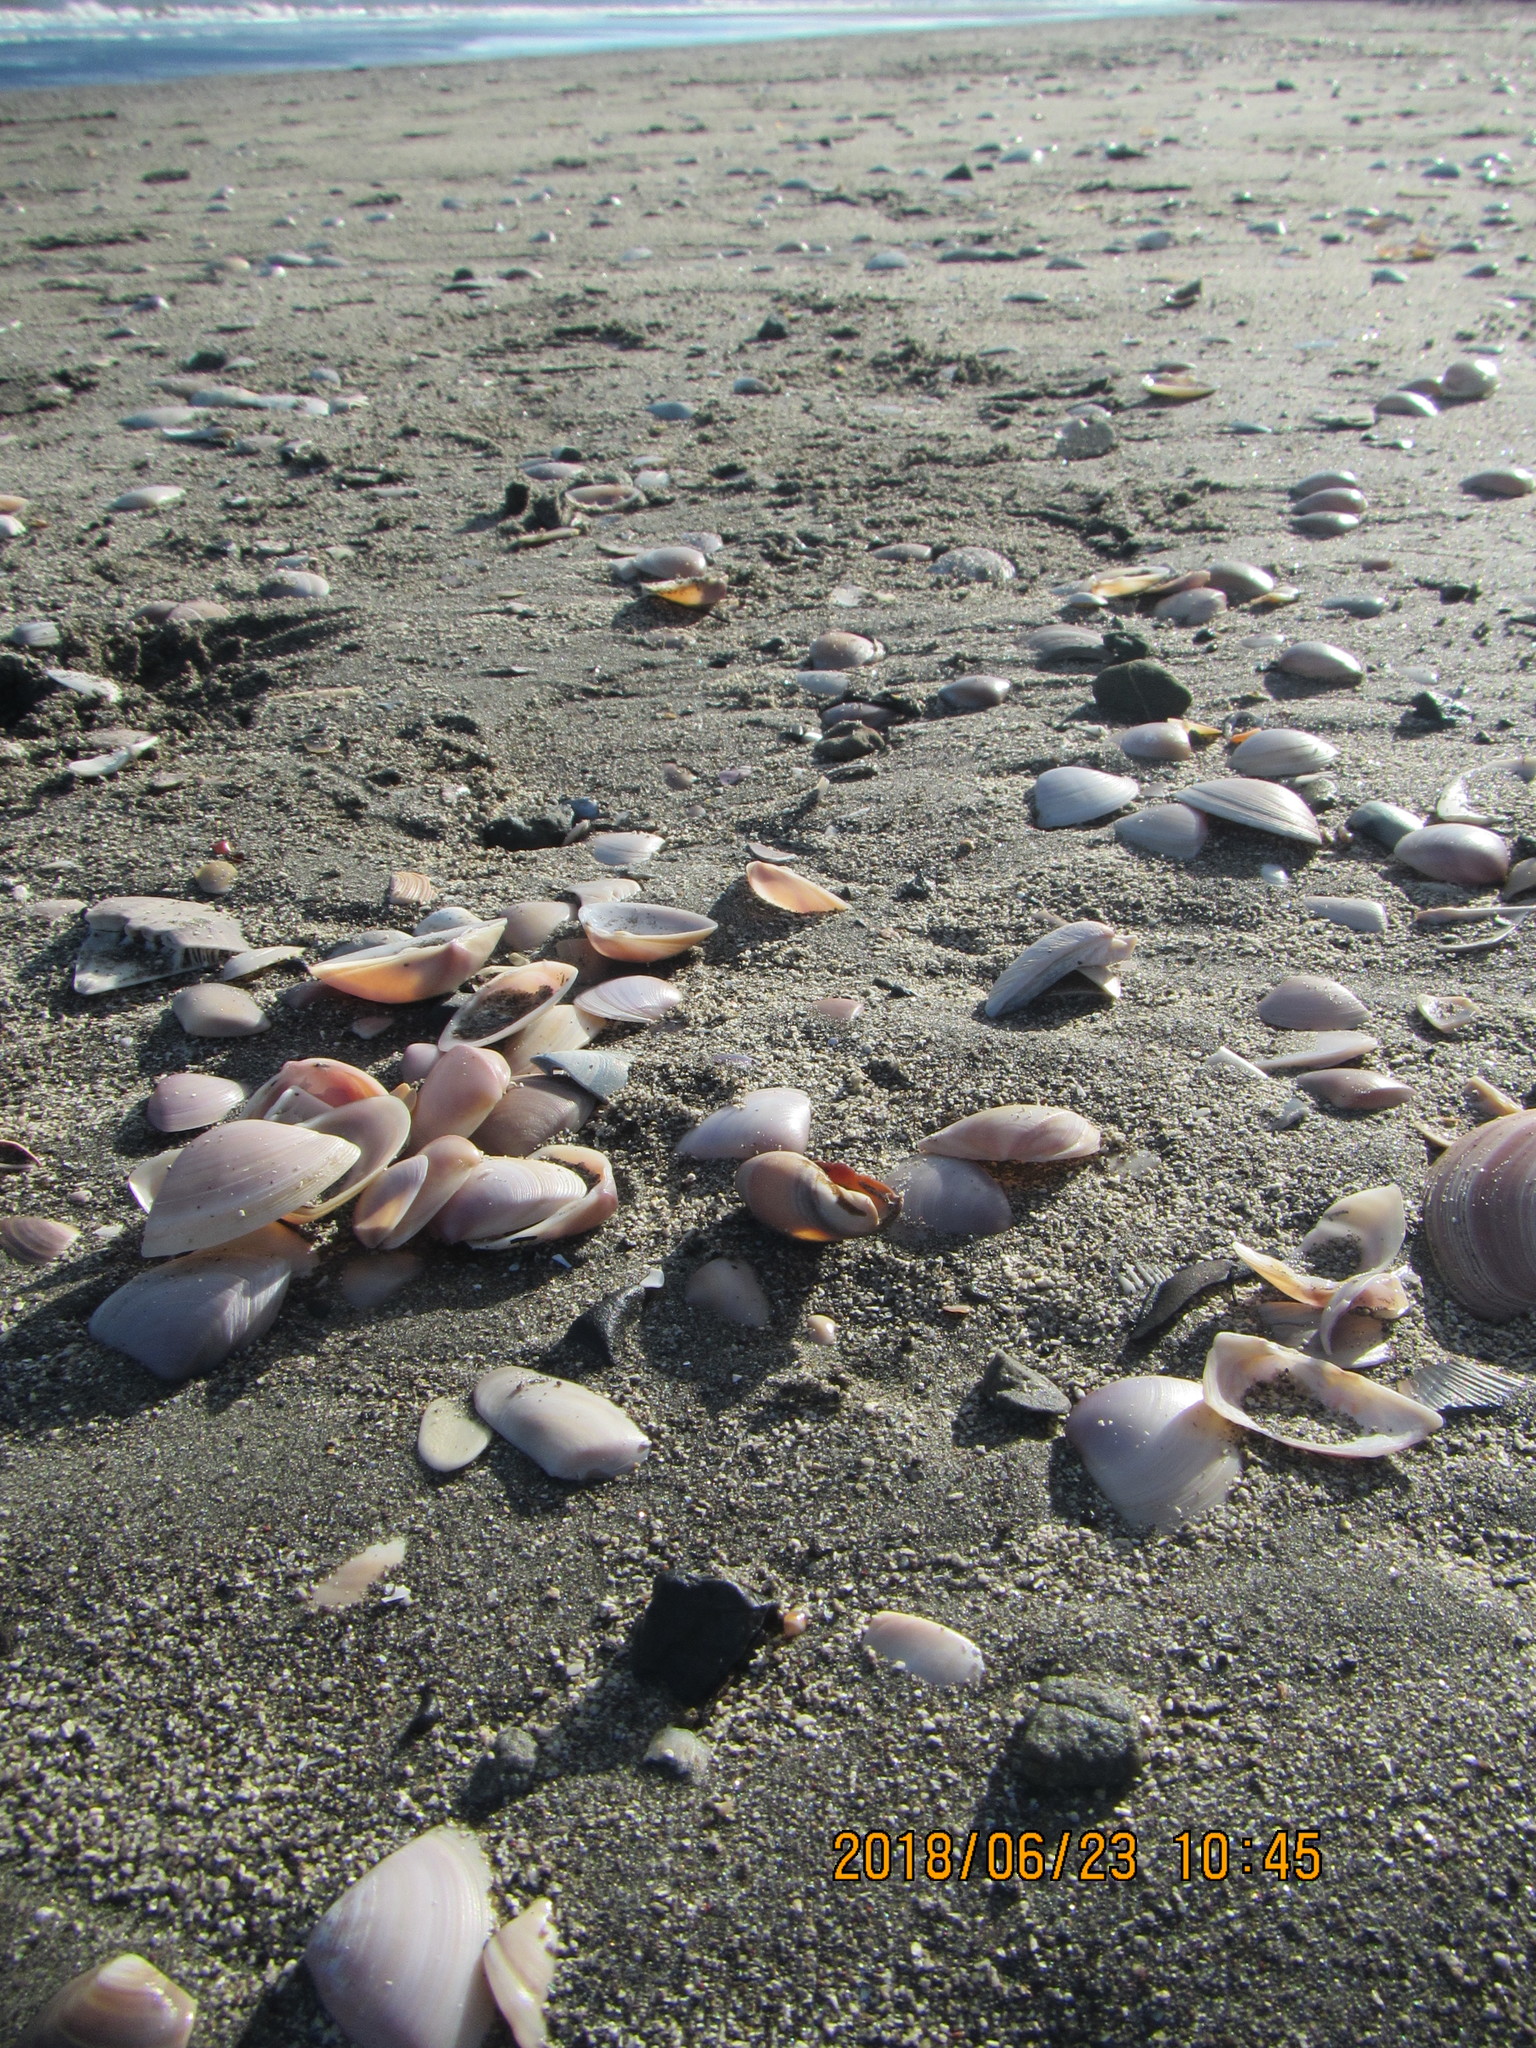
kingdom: Animalia
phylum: Mollusca
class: Gastropoda
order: Neogastropoda
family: Ancillariidae
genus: Amalda
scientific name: Amalda mucronata
